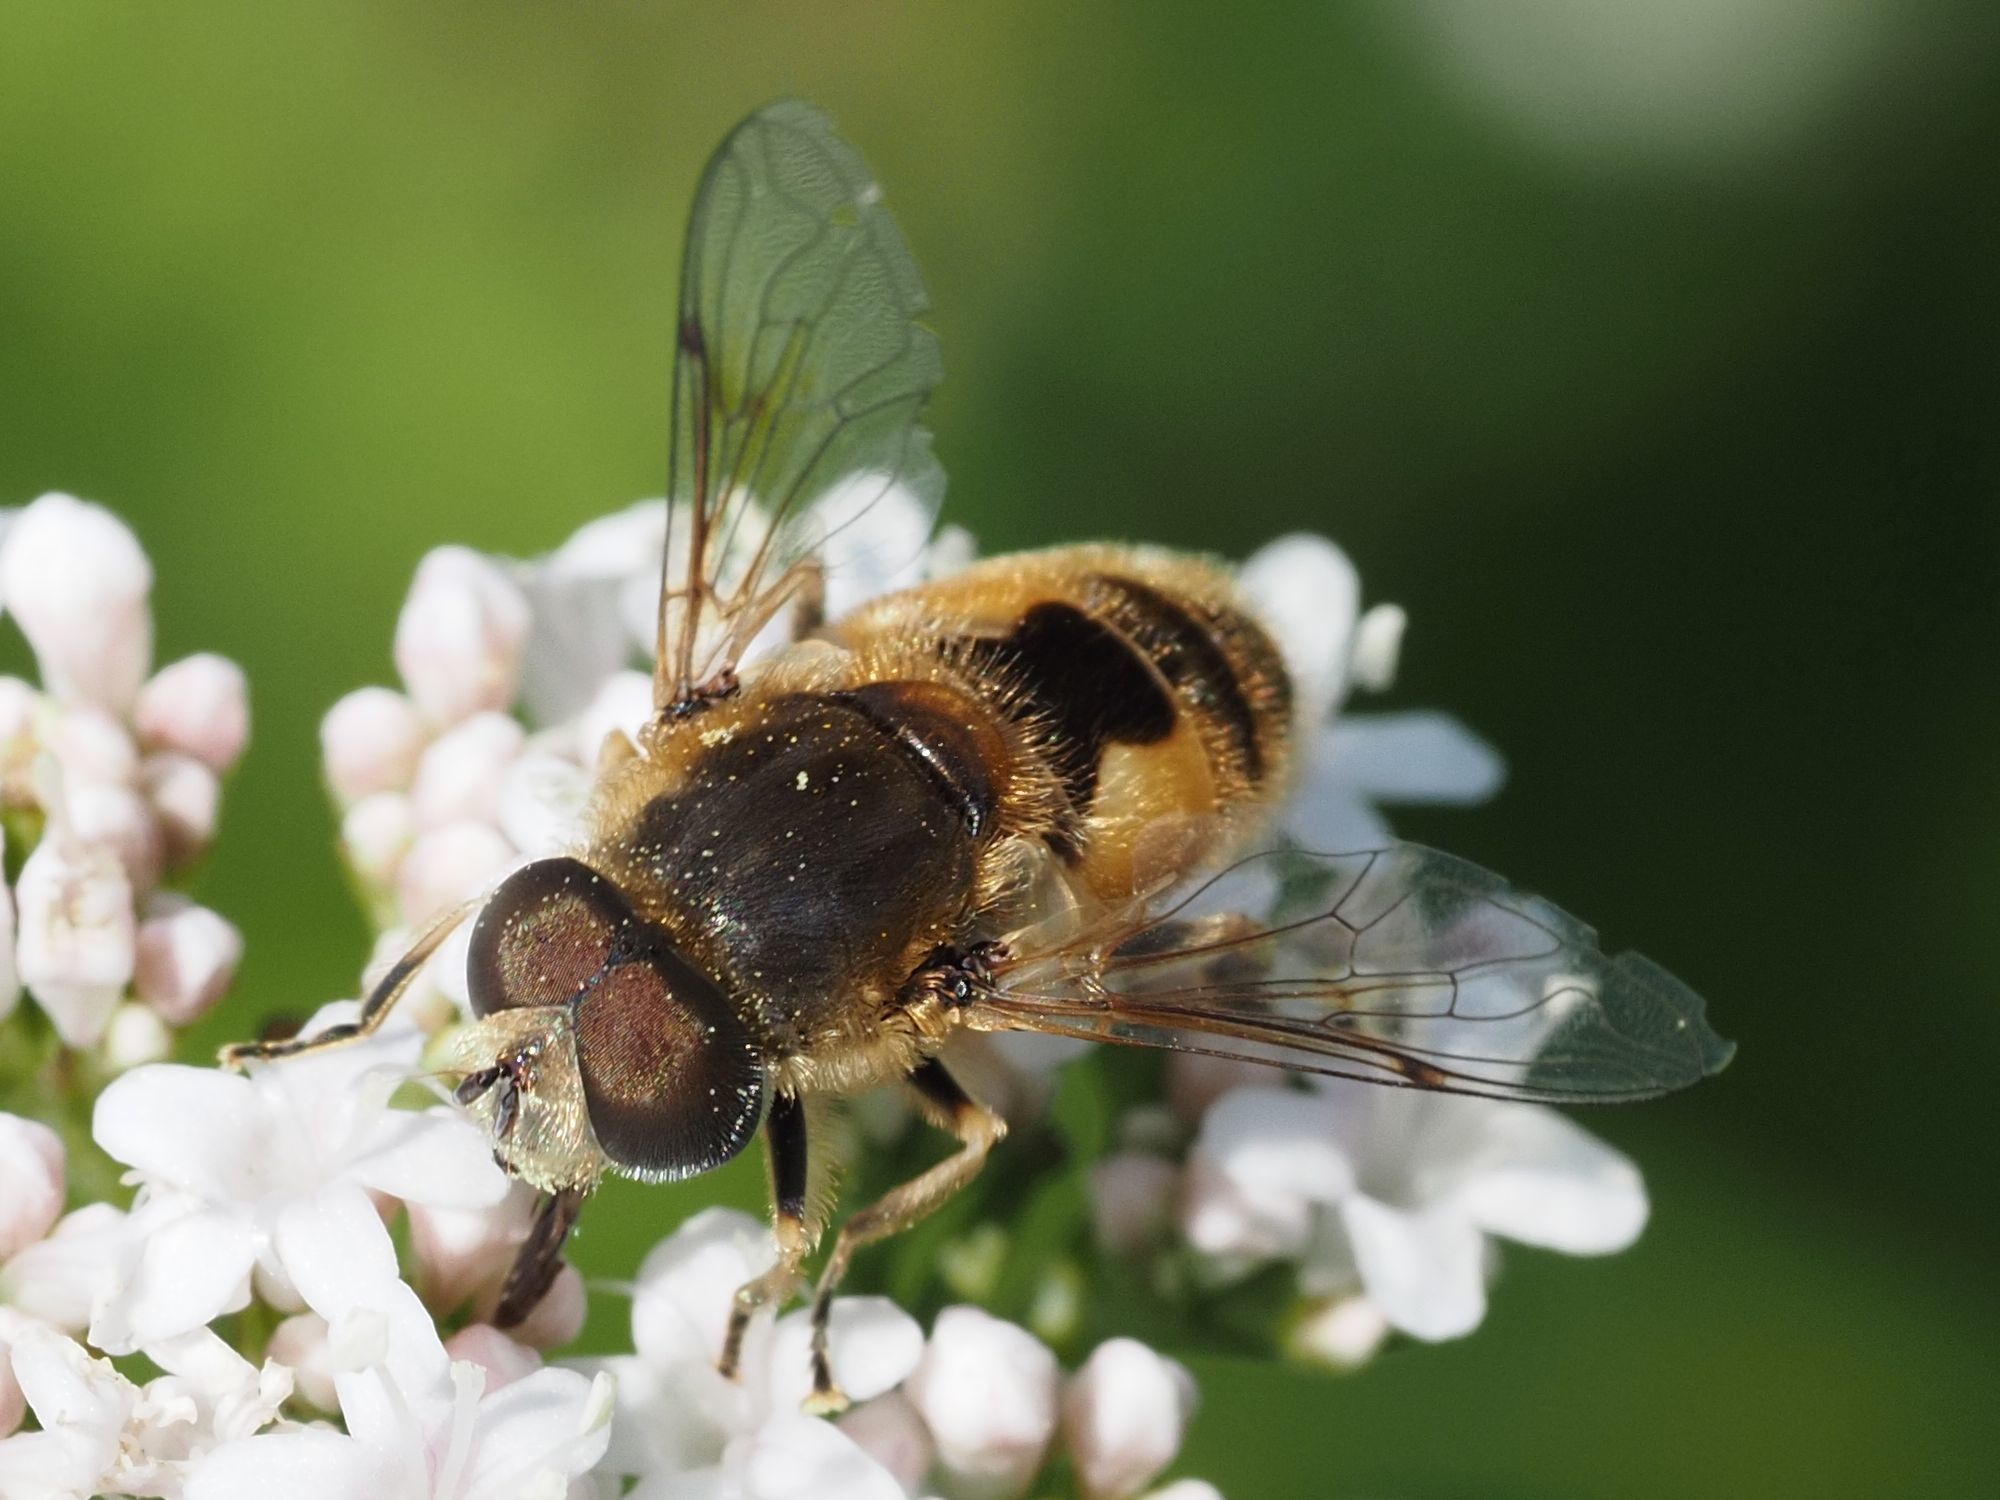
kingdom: Animalia
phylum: Arthropoda
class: Insecta
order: Diptera
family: Syrphidae
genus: Eristalis
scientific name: Eristalis arbustorum
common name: Hover fly
